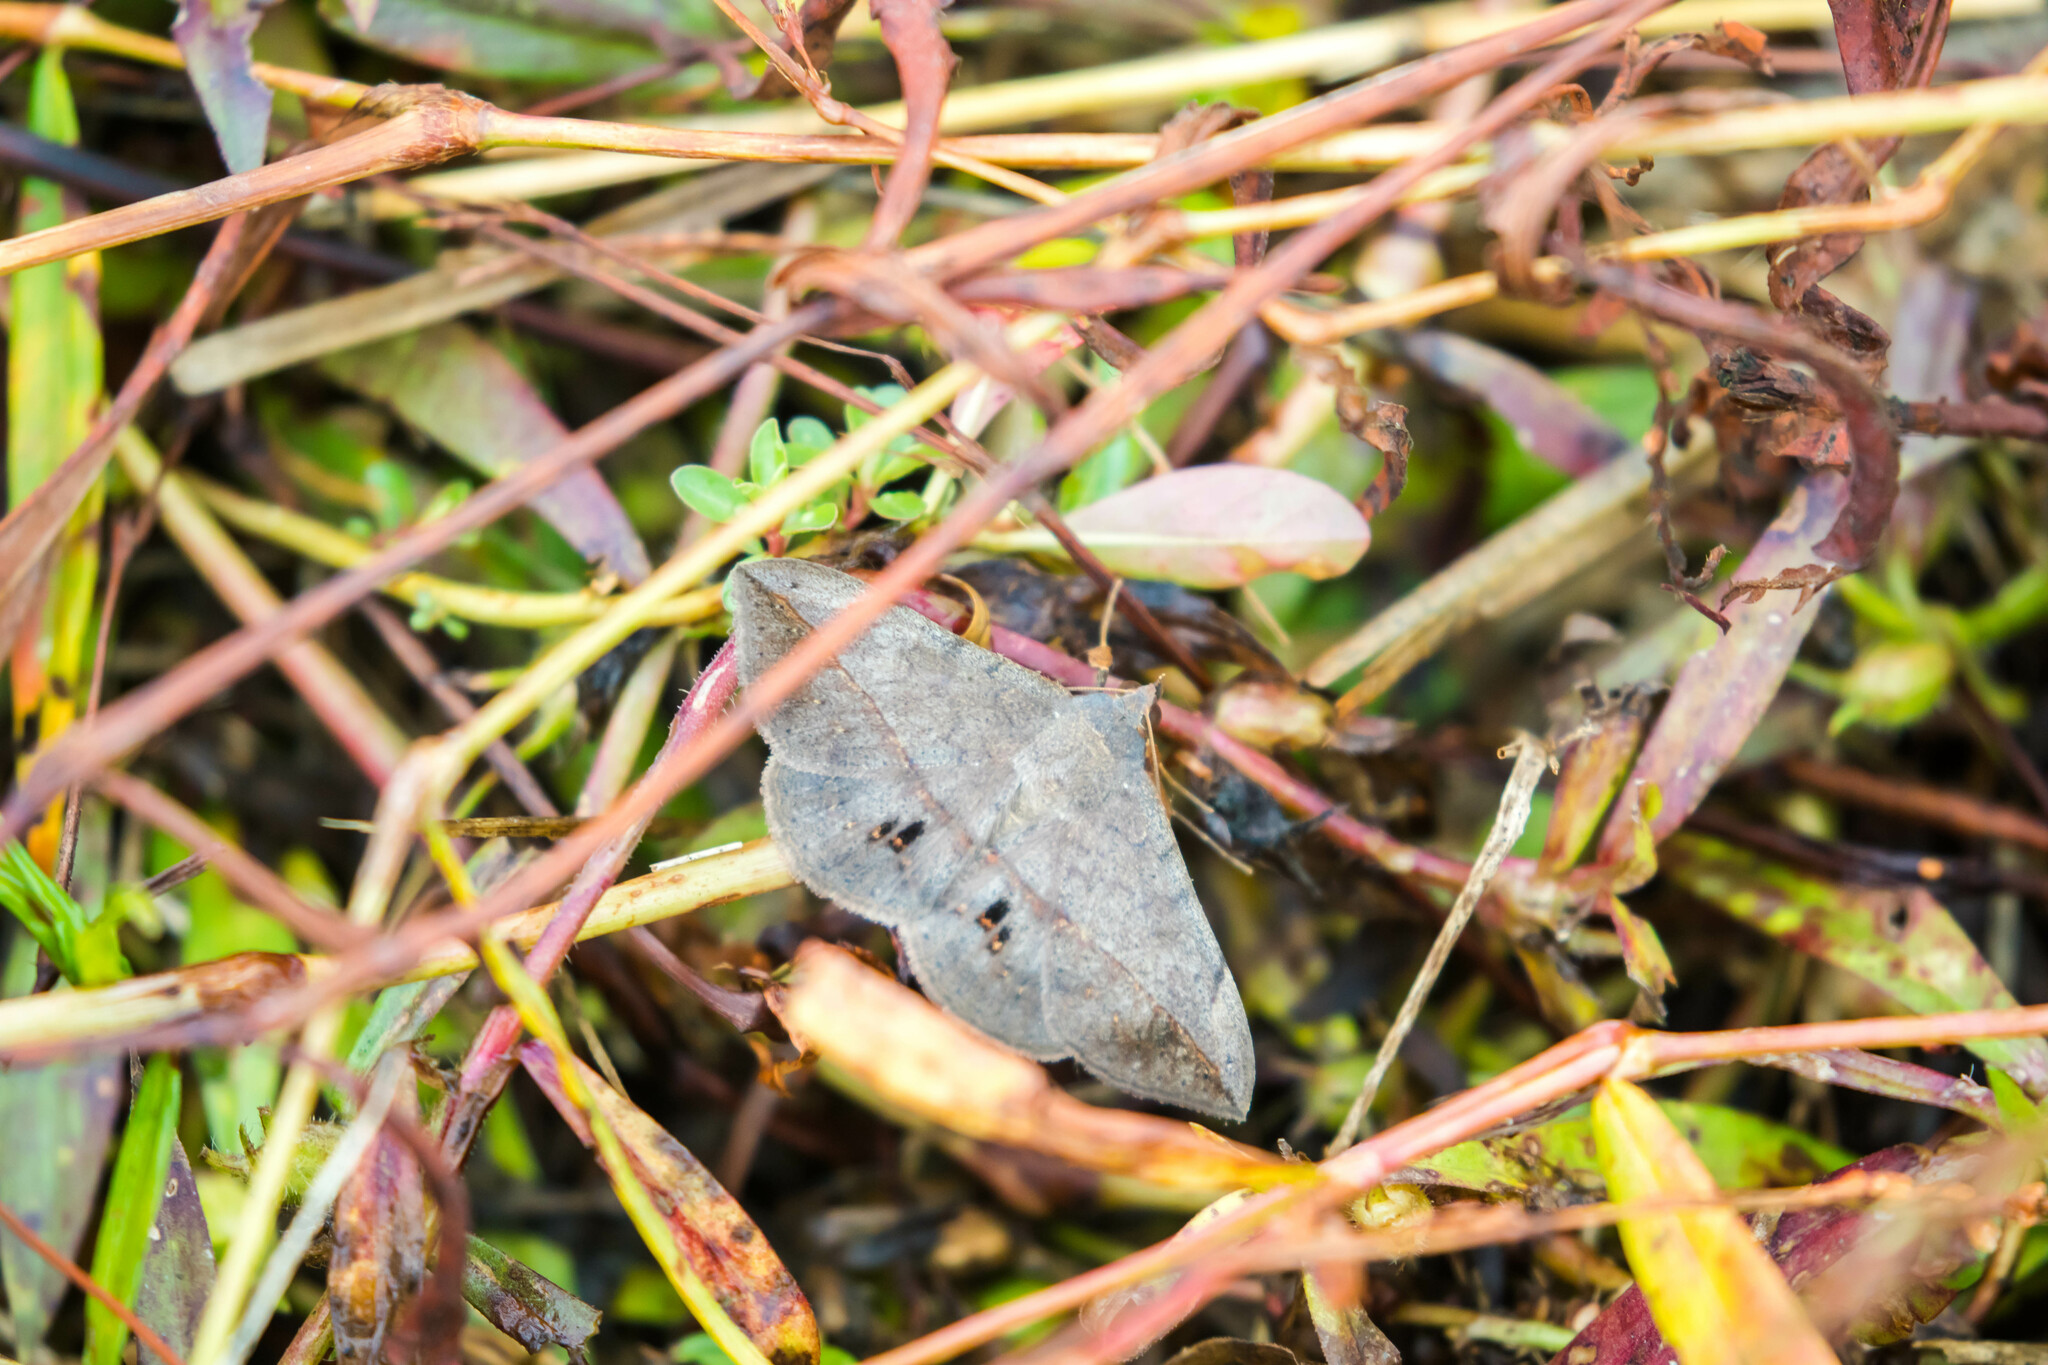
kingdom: Animalia
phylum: Arthropoda
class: Insecta
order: Lepidoptera
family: Erebidae
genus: Anticarsia
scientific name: Anticarsia gemmatalis
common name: Cutworm moth
